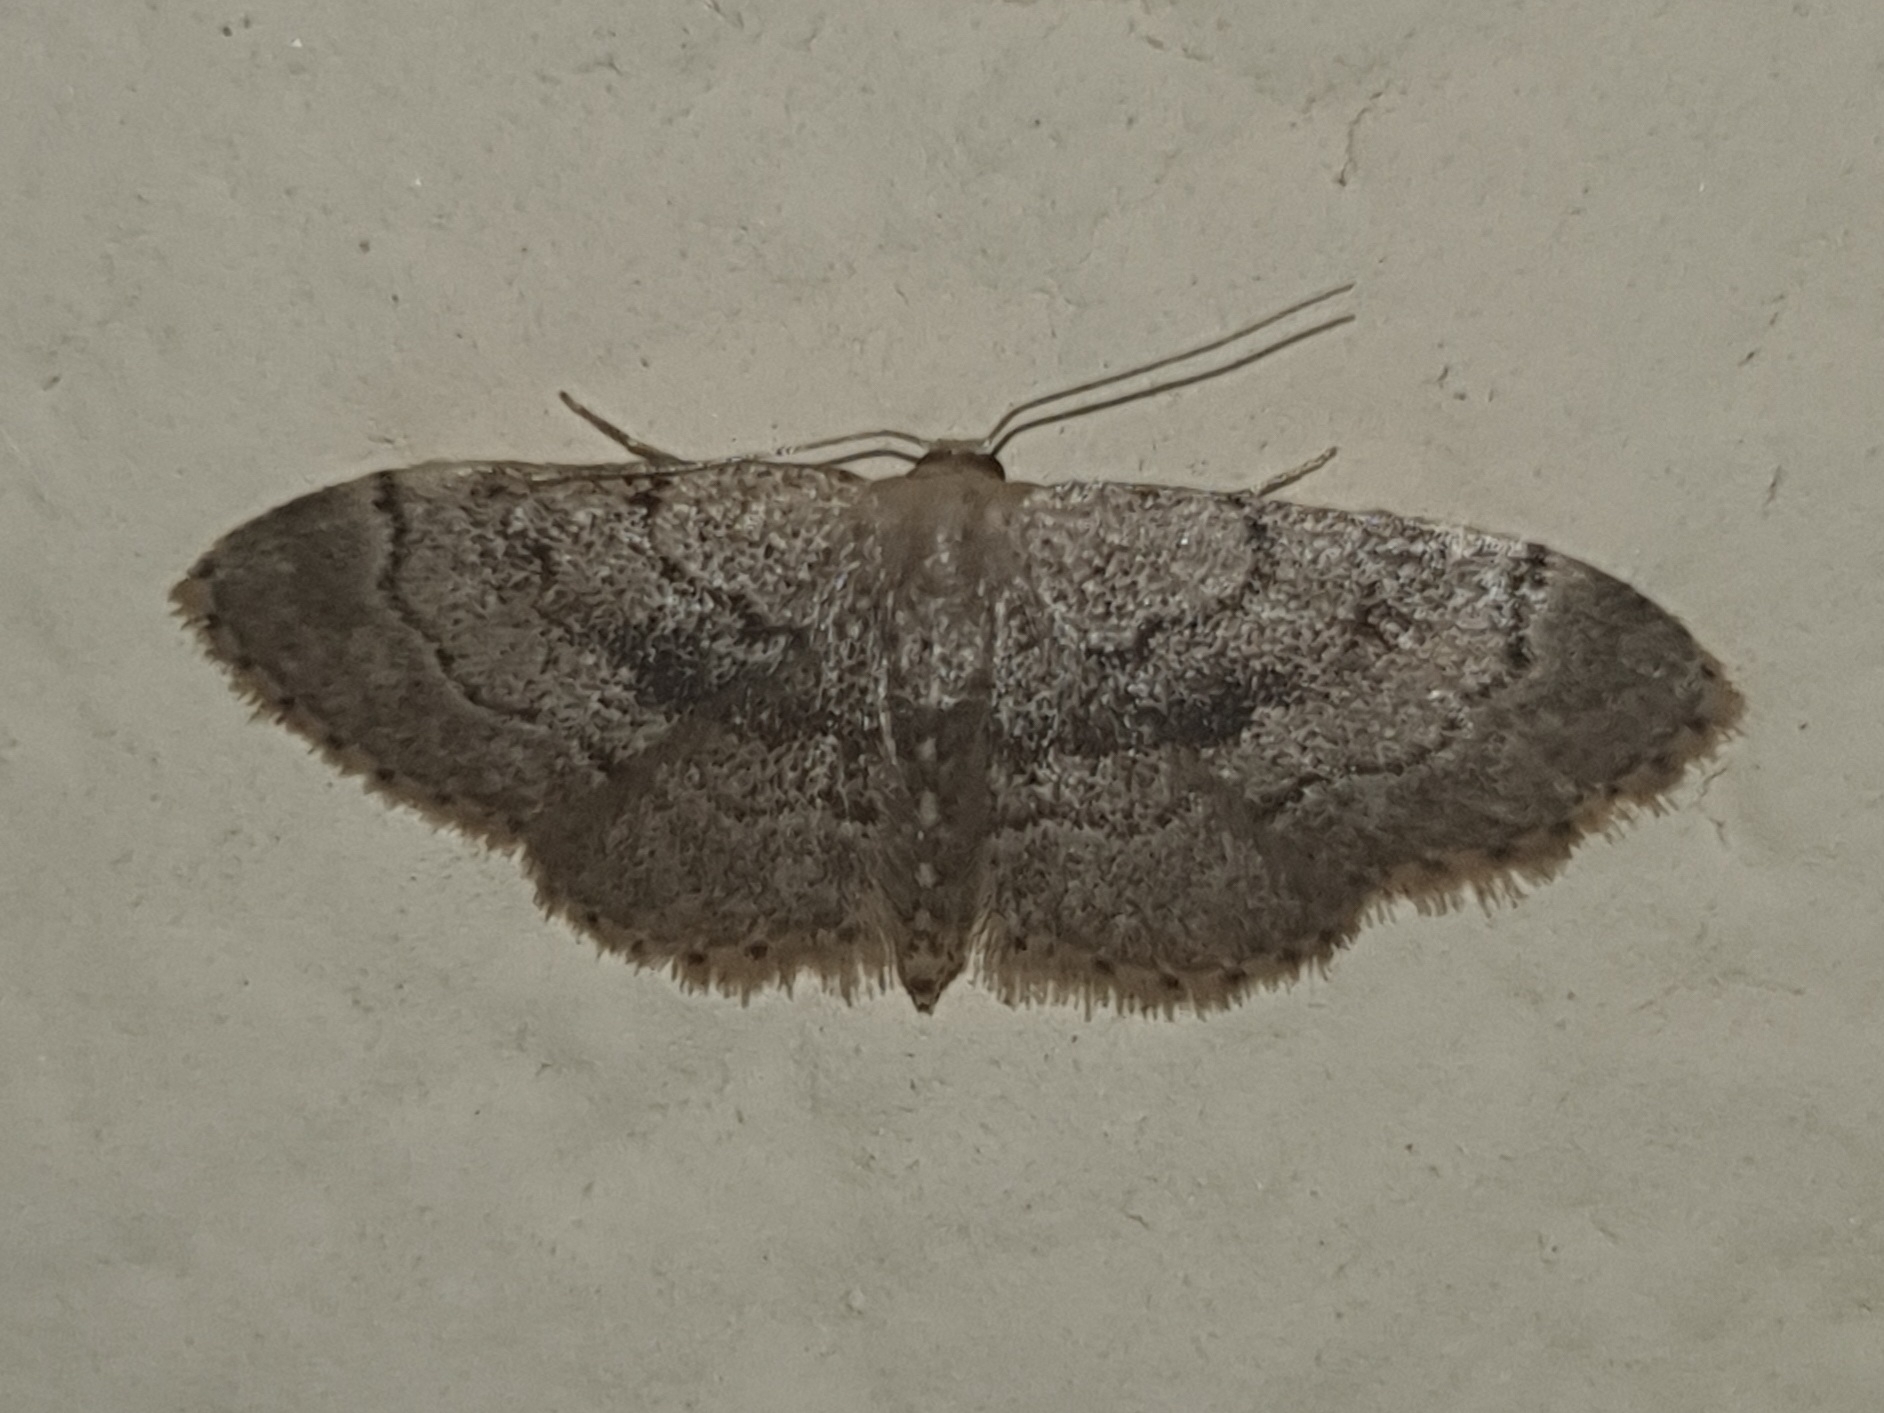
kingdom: Animalia
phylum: Arthropoda
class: Insecta
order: Lepidoptera
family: Geometridae
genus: Idaea
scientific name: Idaea laevigata
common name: Strange wave
